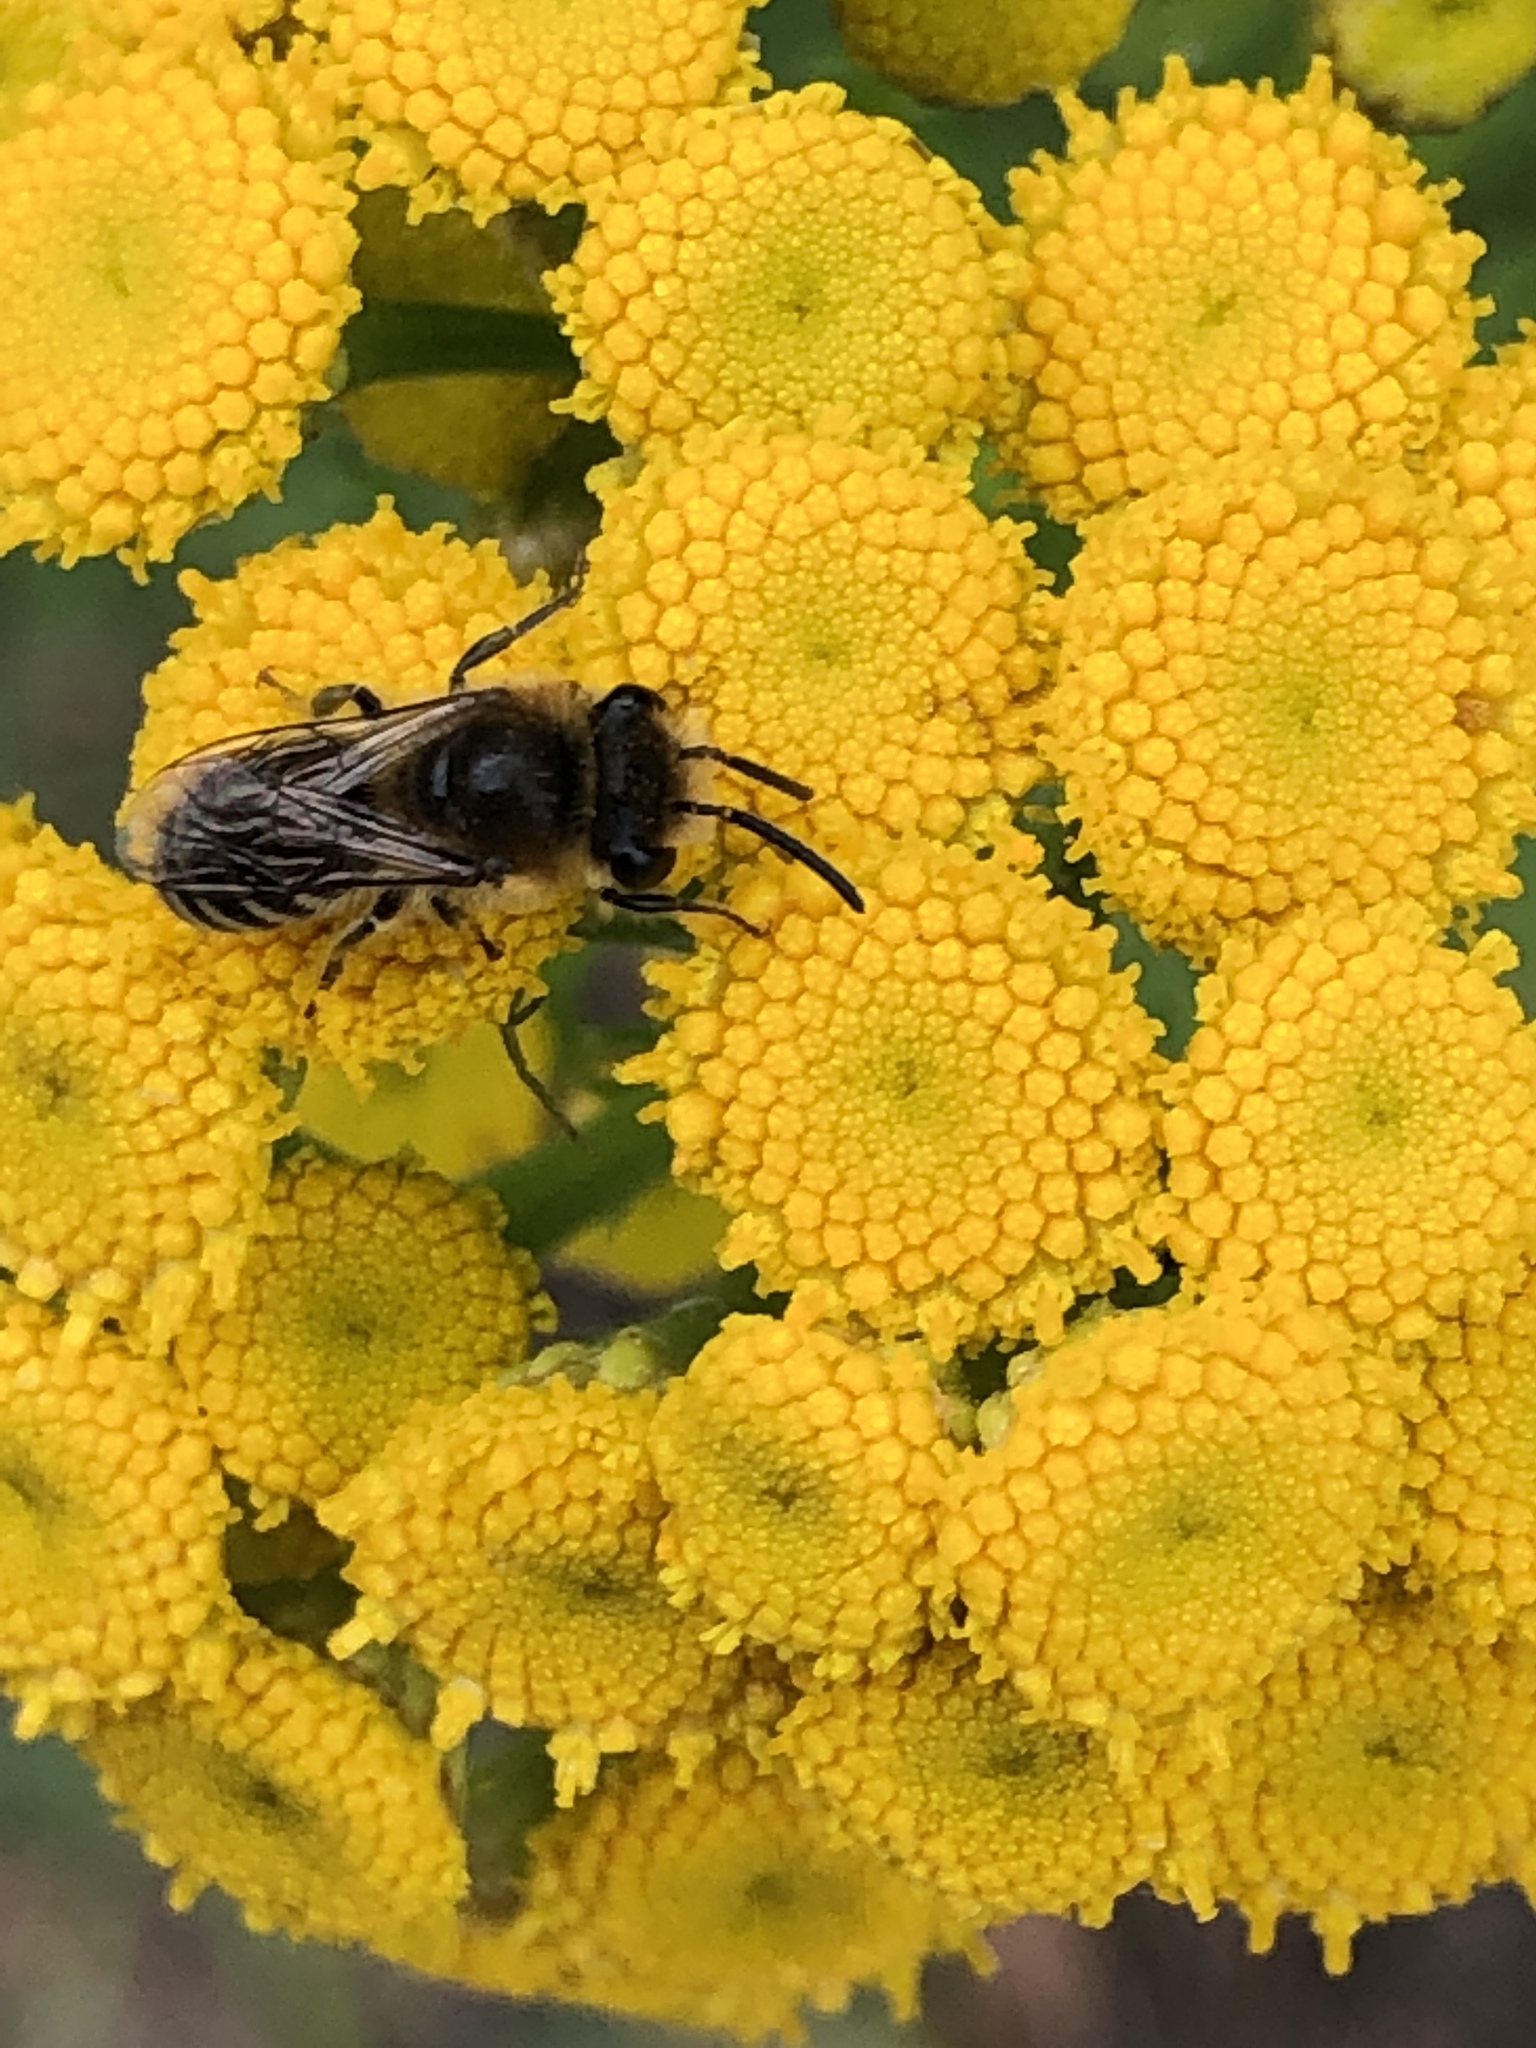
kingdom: Animalia
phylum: Arthropoda
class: Insecta
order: Hymenoptera
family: Colletidae
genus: Colletes
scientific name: Colletes
